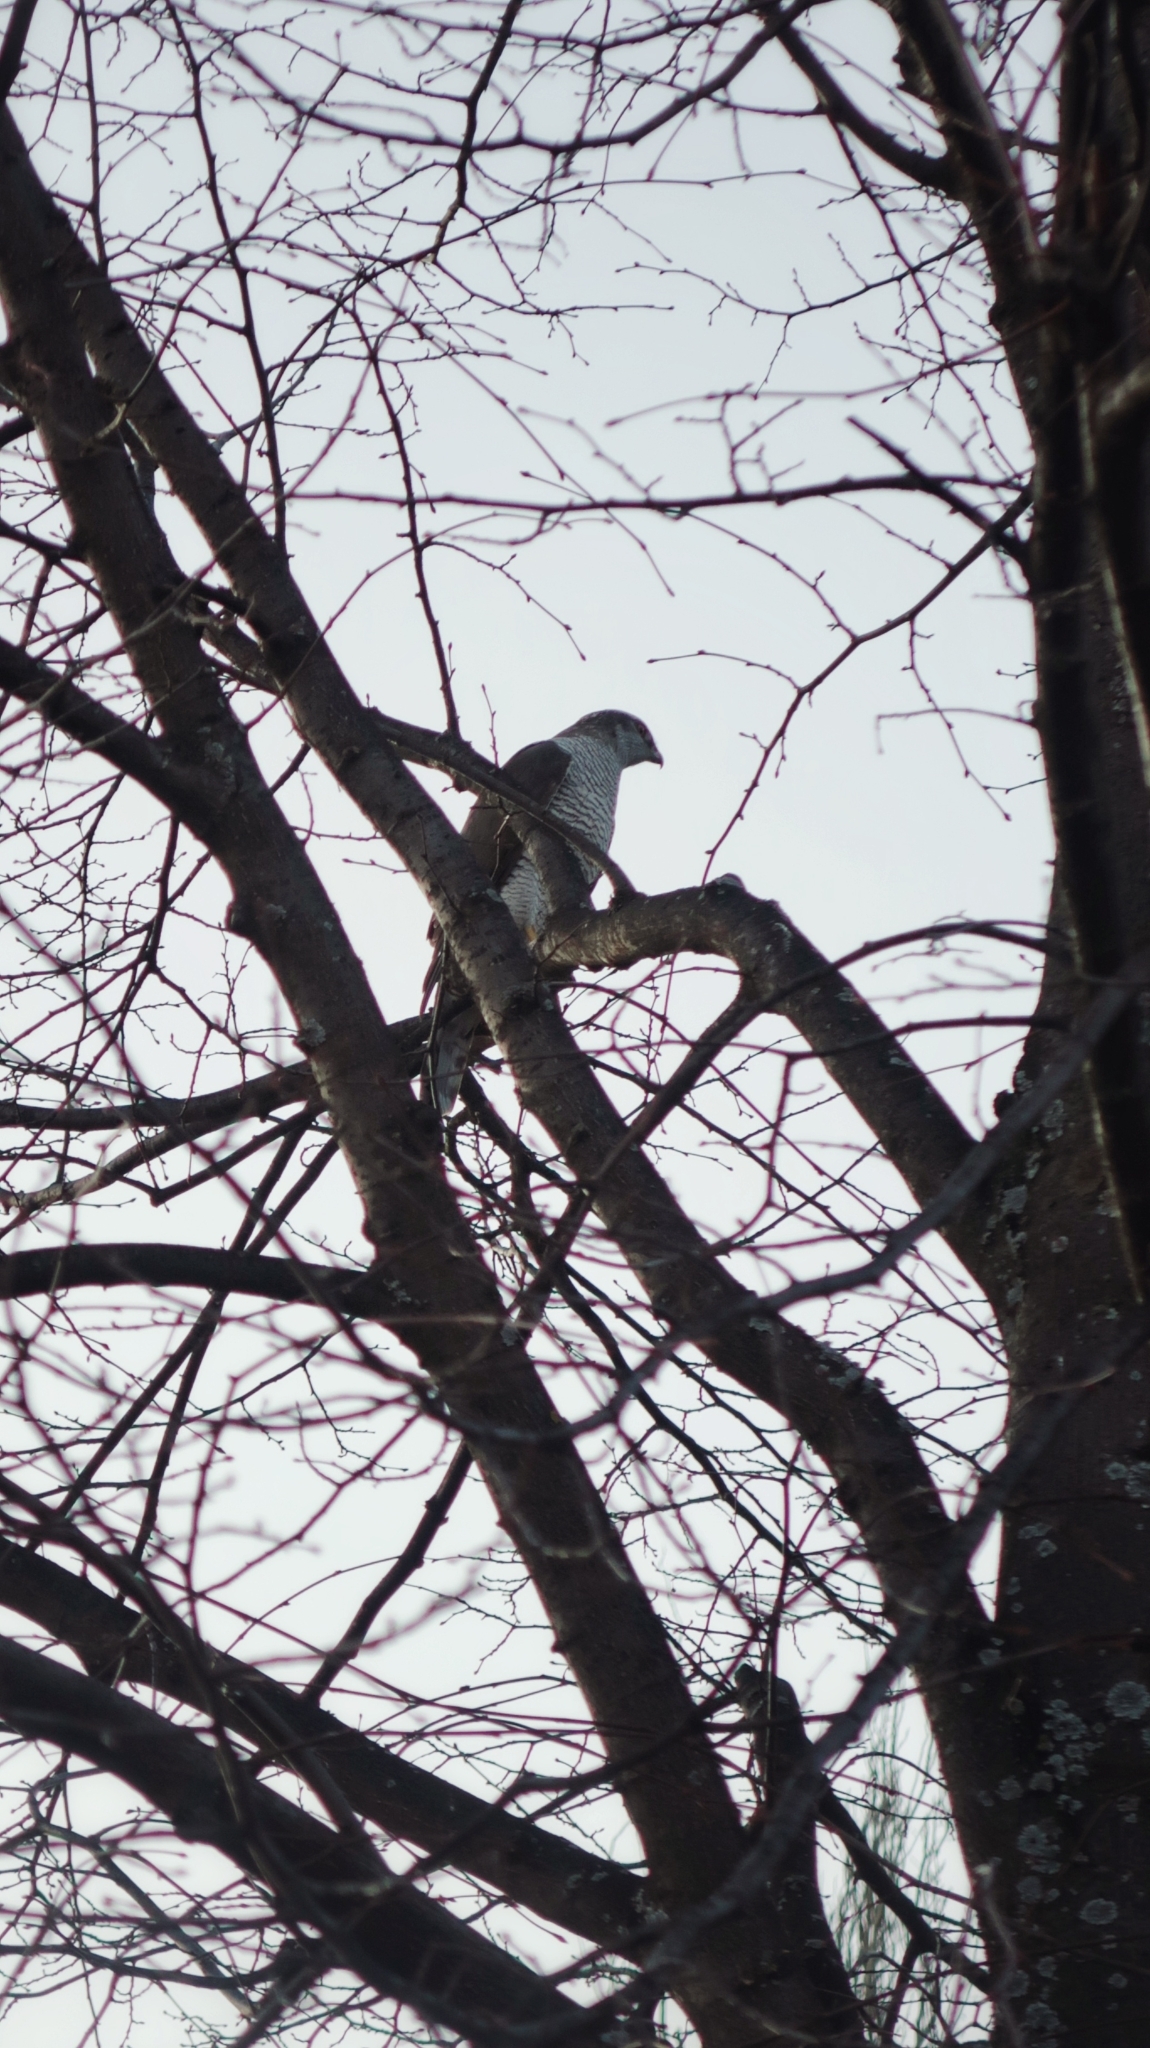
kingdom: Animalia
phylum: Chordata
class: Aves
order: Accipitriformes
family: Accipitridae
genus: Accipiter
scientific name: Accipiter gentilis
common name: Northern goshawk
